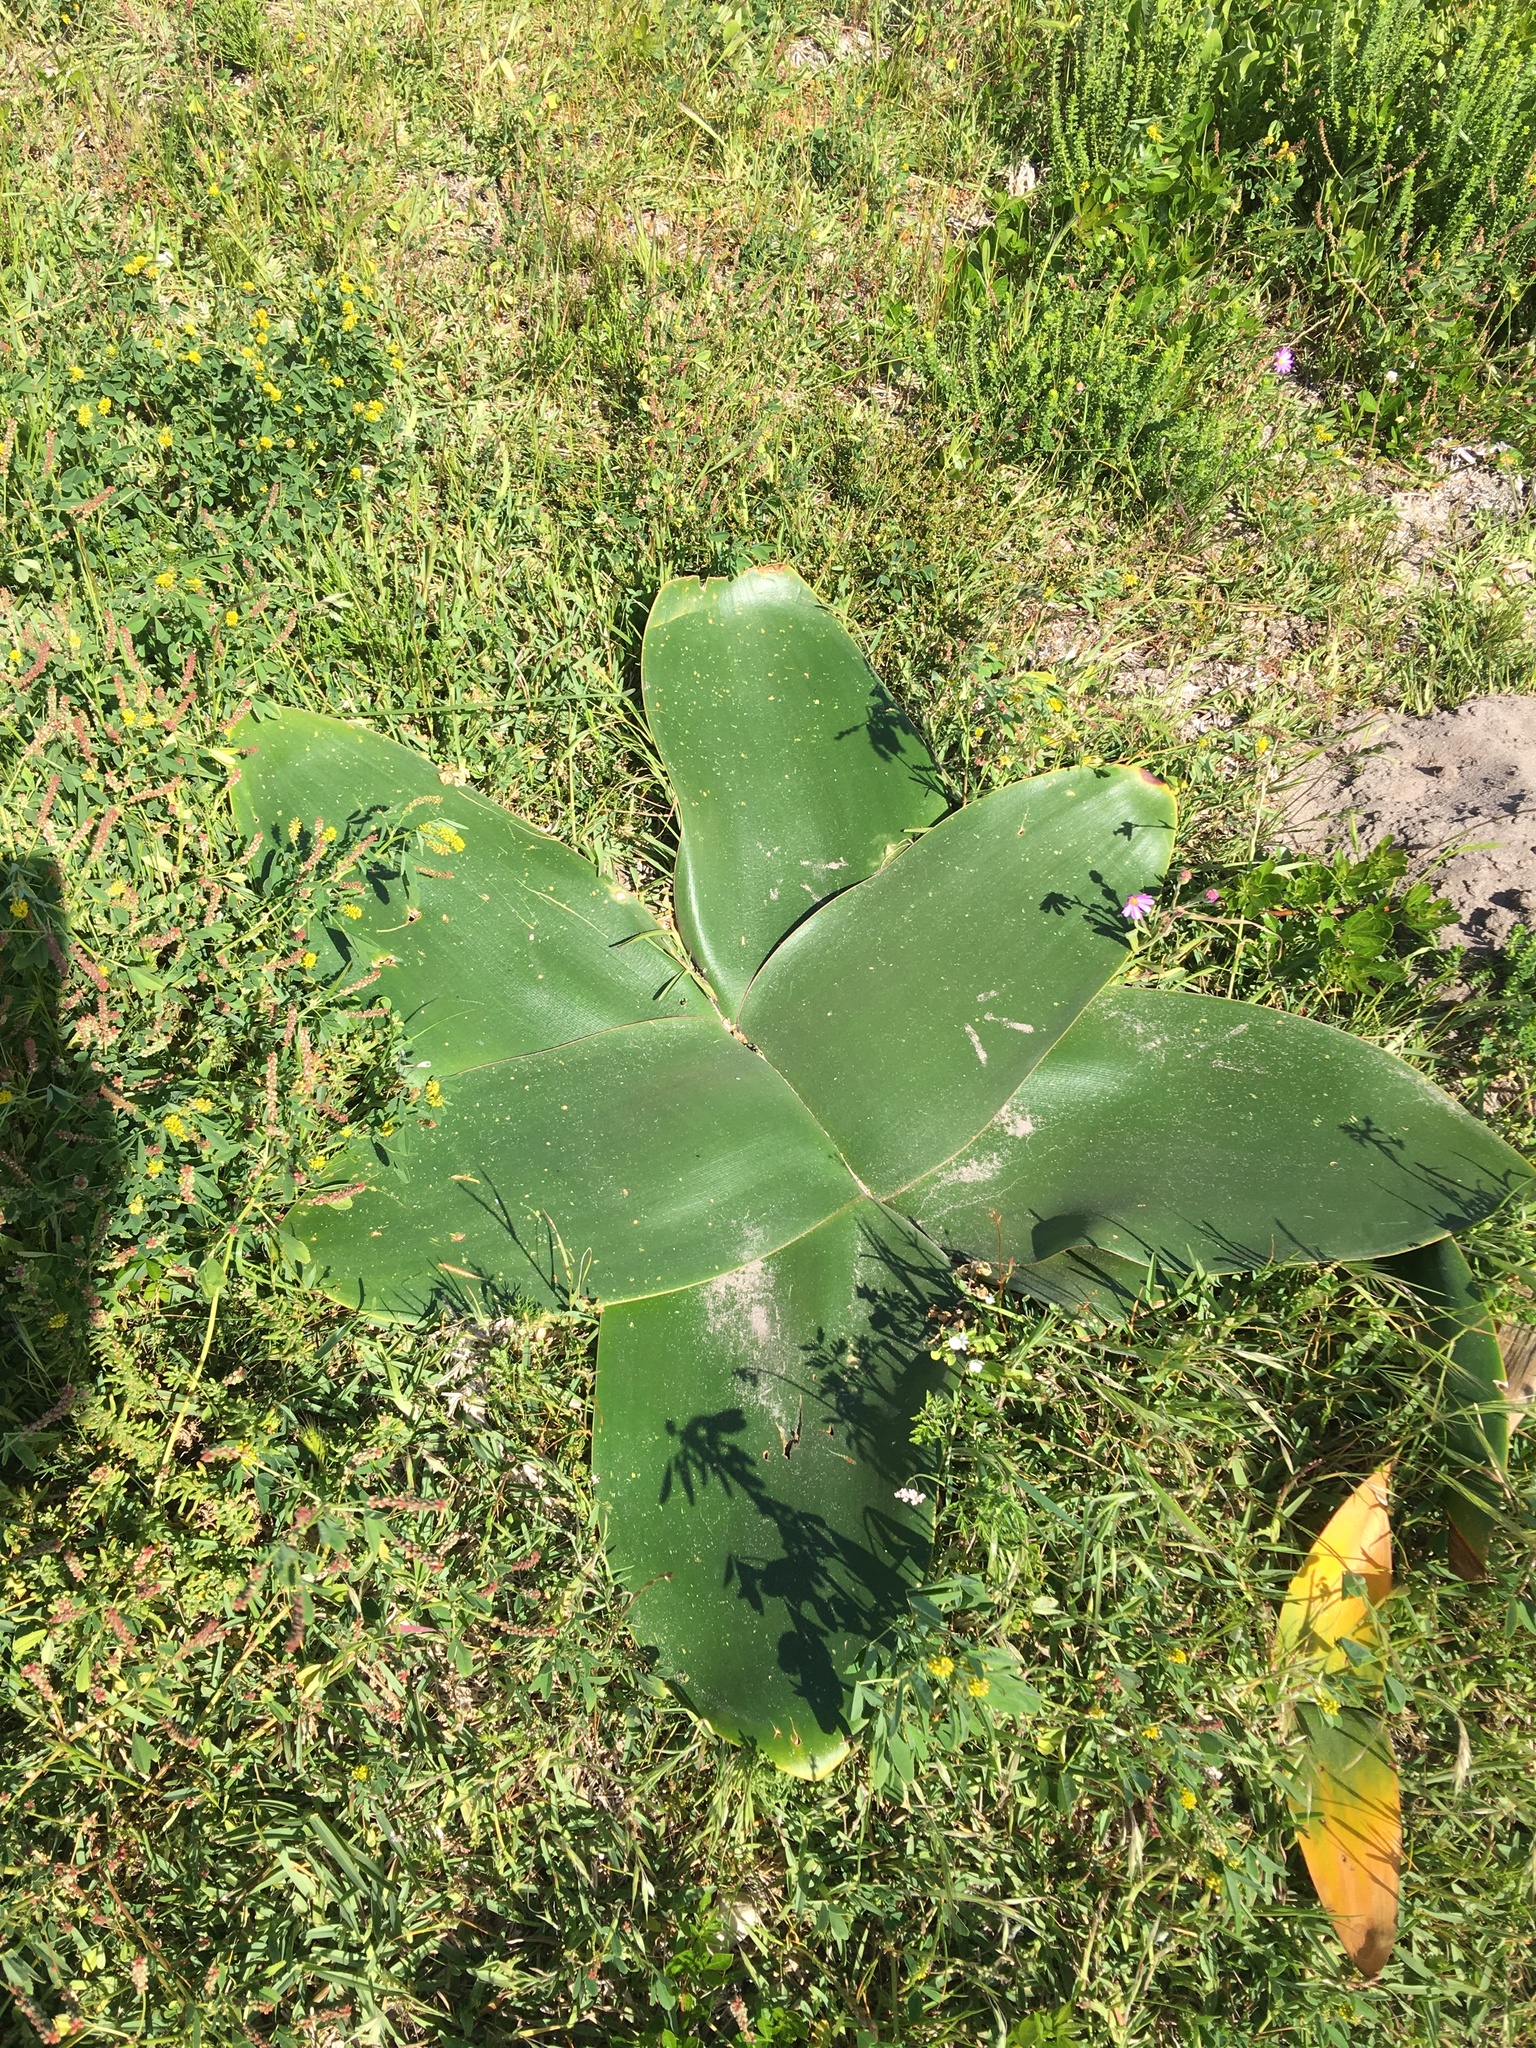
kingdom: Plantae
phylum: Tracheophyta
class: Liliopsida
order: Asparagales
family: Amaryllidaceae
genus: Brunsvigia
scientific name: Brunsvigia orientalis
